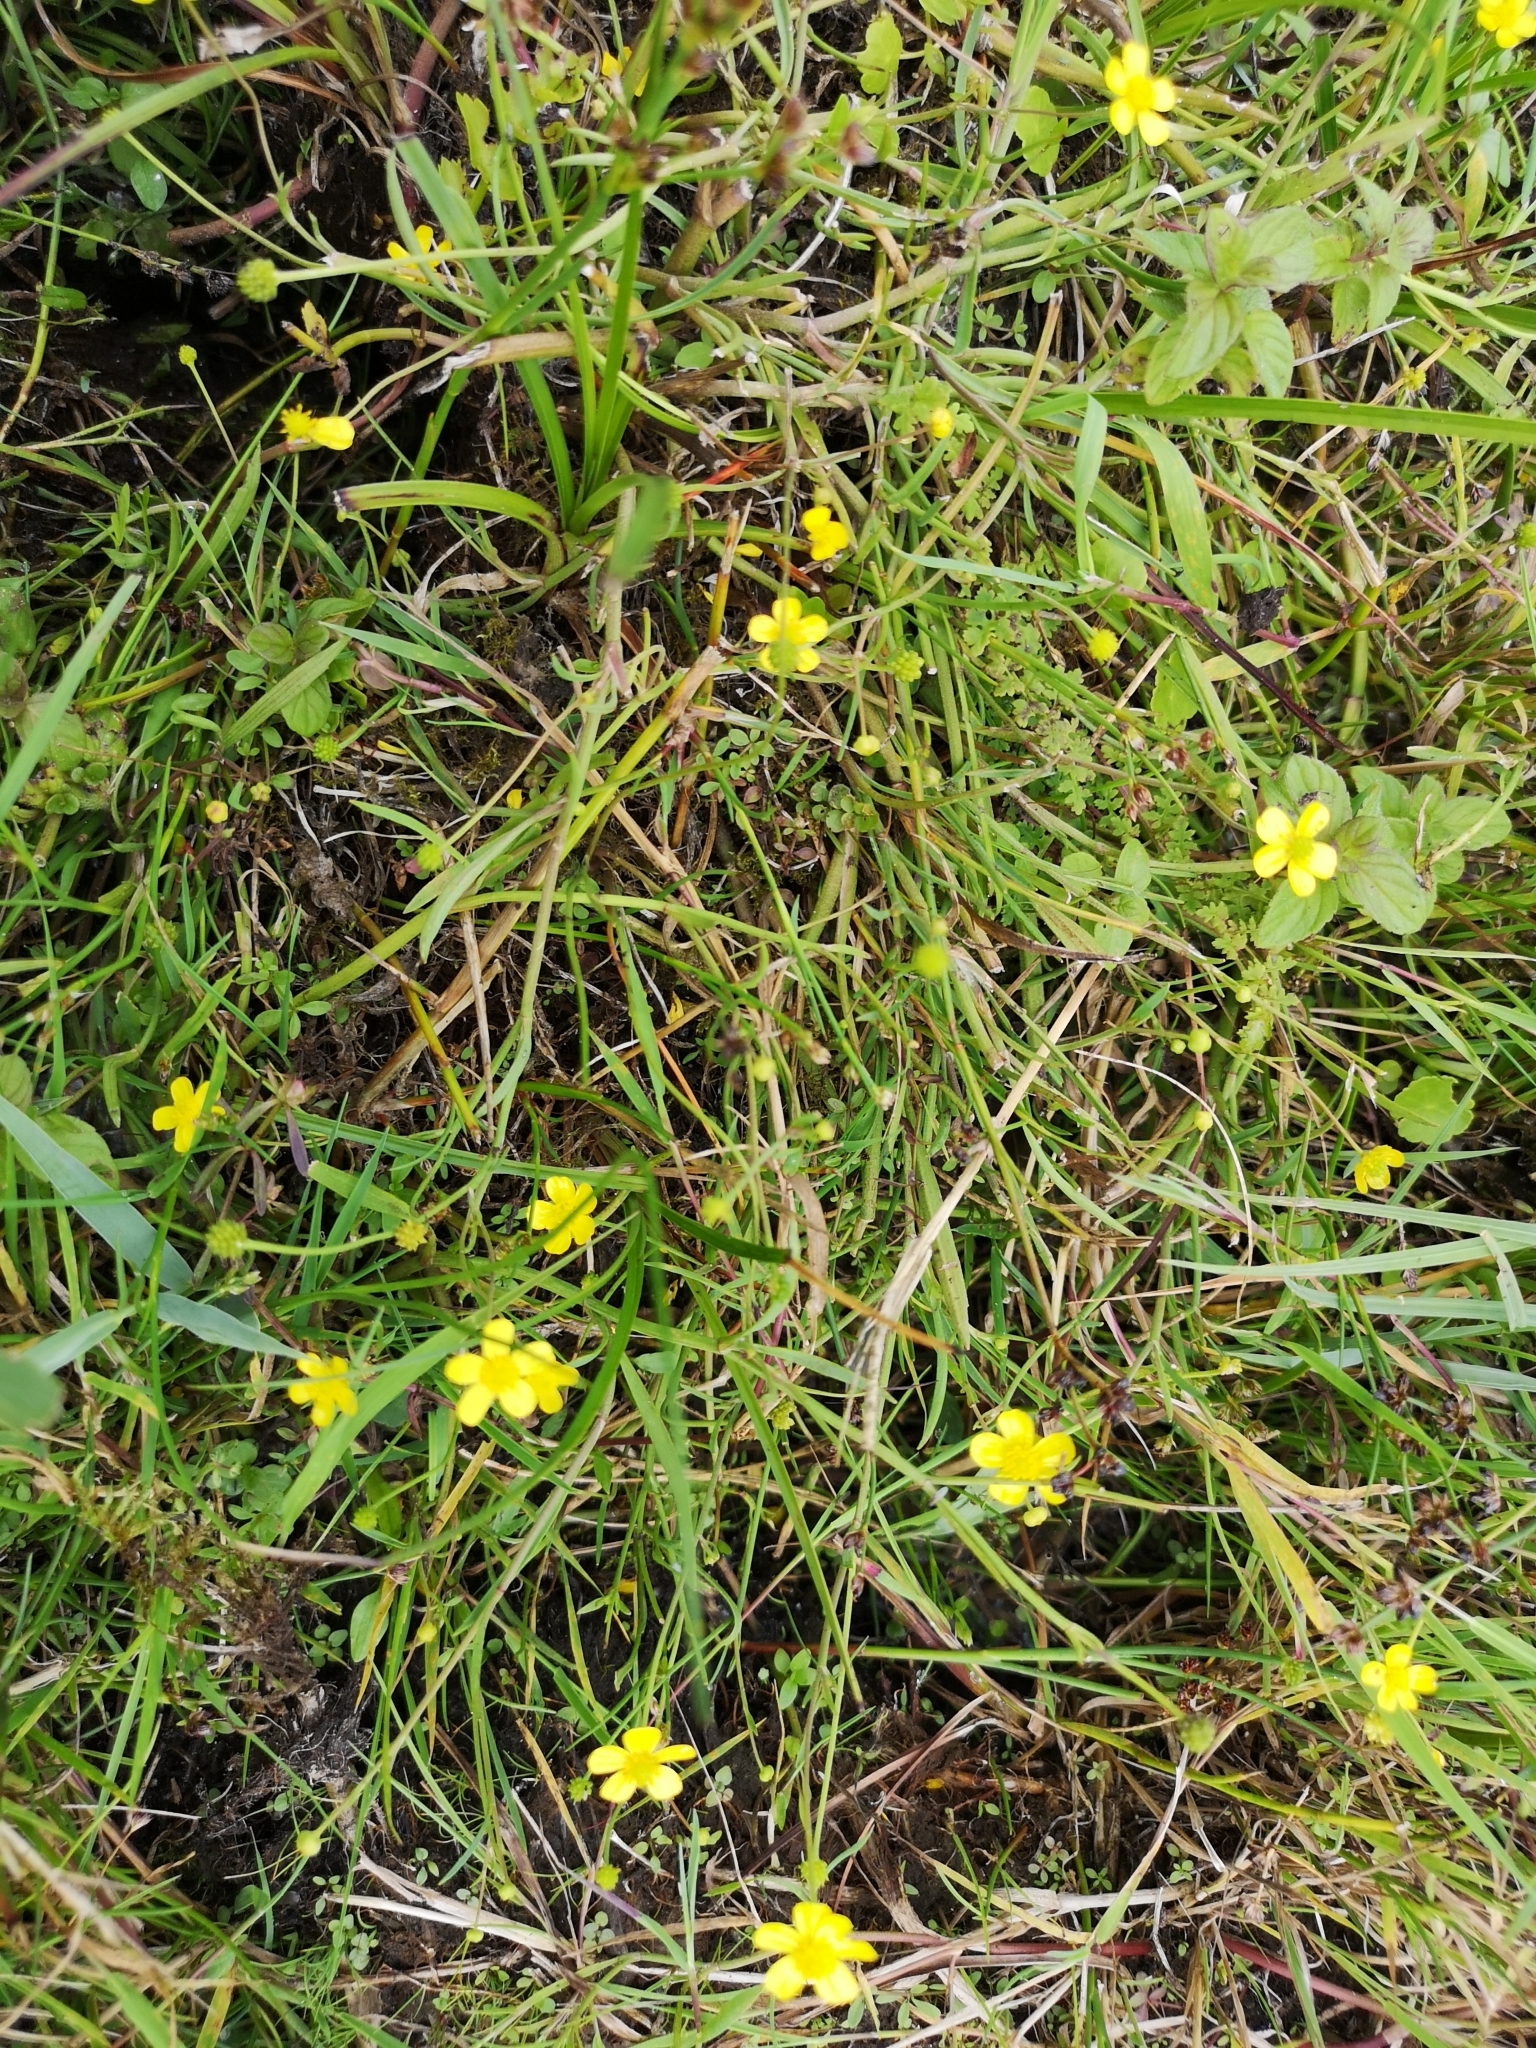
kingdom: Plantae
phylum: Tracheophyta
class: Magnoliopsida
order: Ranunculales
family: Ranunculaceae
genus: Ranunculus
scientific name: Ranunculus flammula
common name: Lesser spearwort
